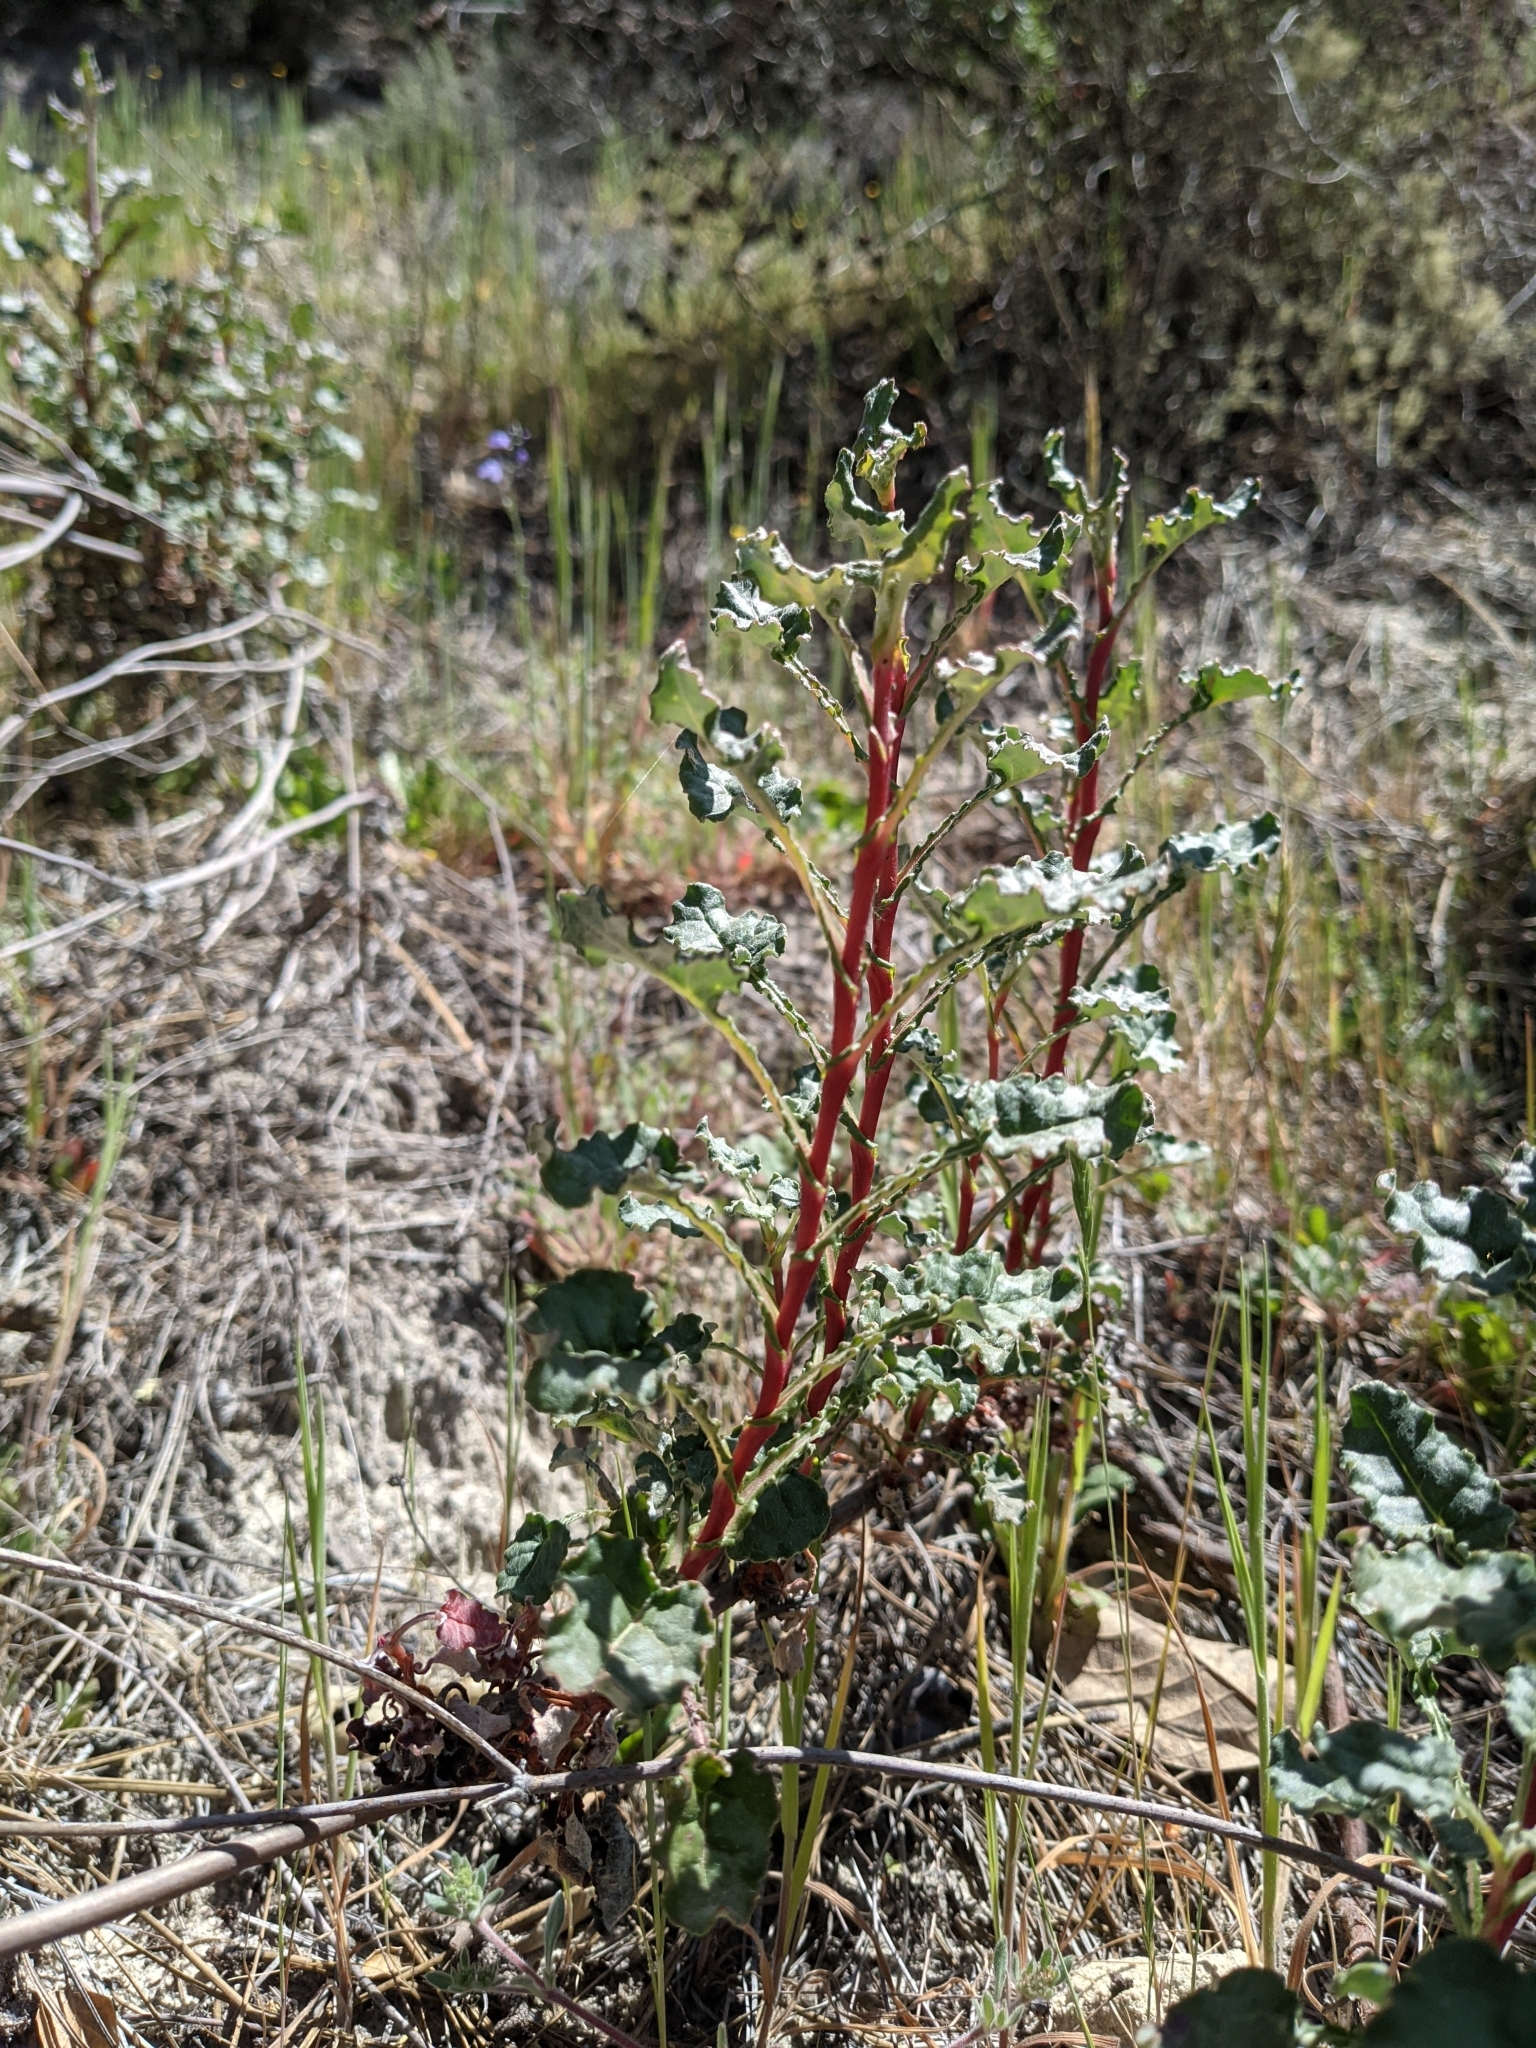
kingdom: Plantae
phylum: Tracheophyta
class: Magnoliopsida
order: Caryophyllales
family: Polygonaceae
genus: Eriogonum
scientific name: Eriogonum nudum
